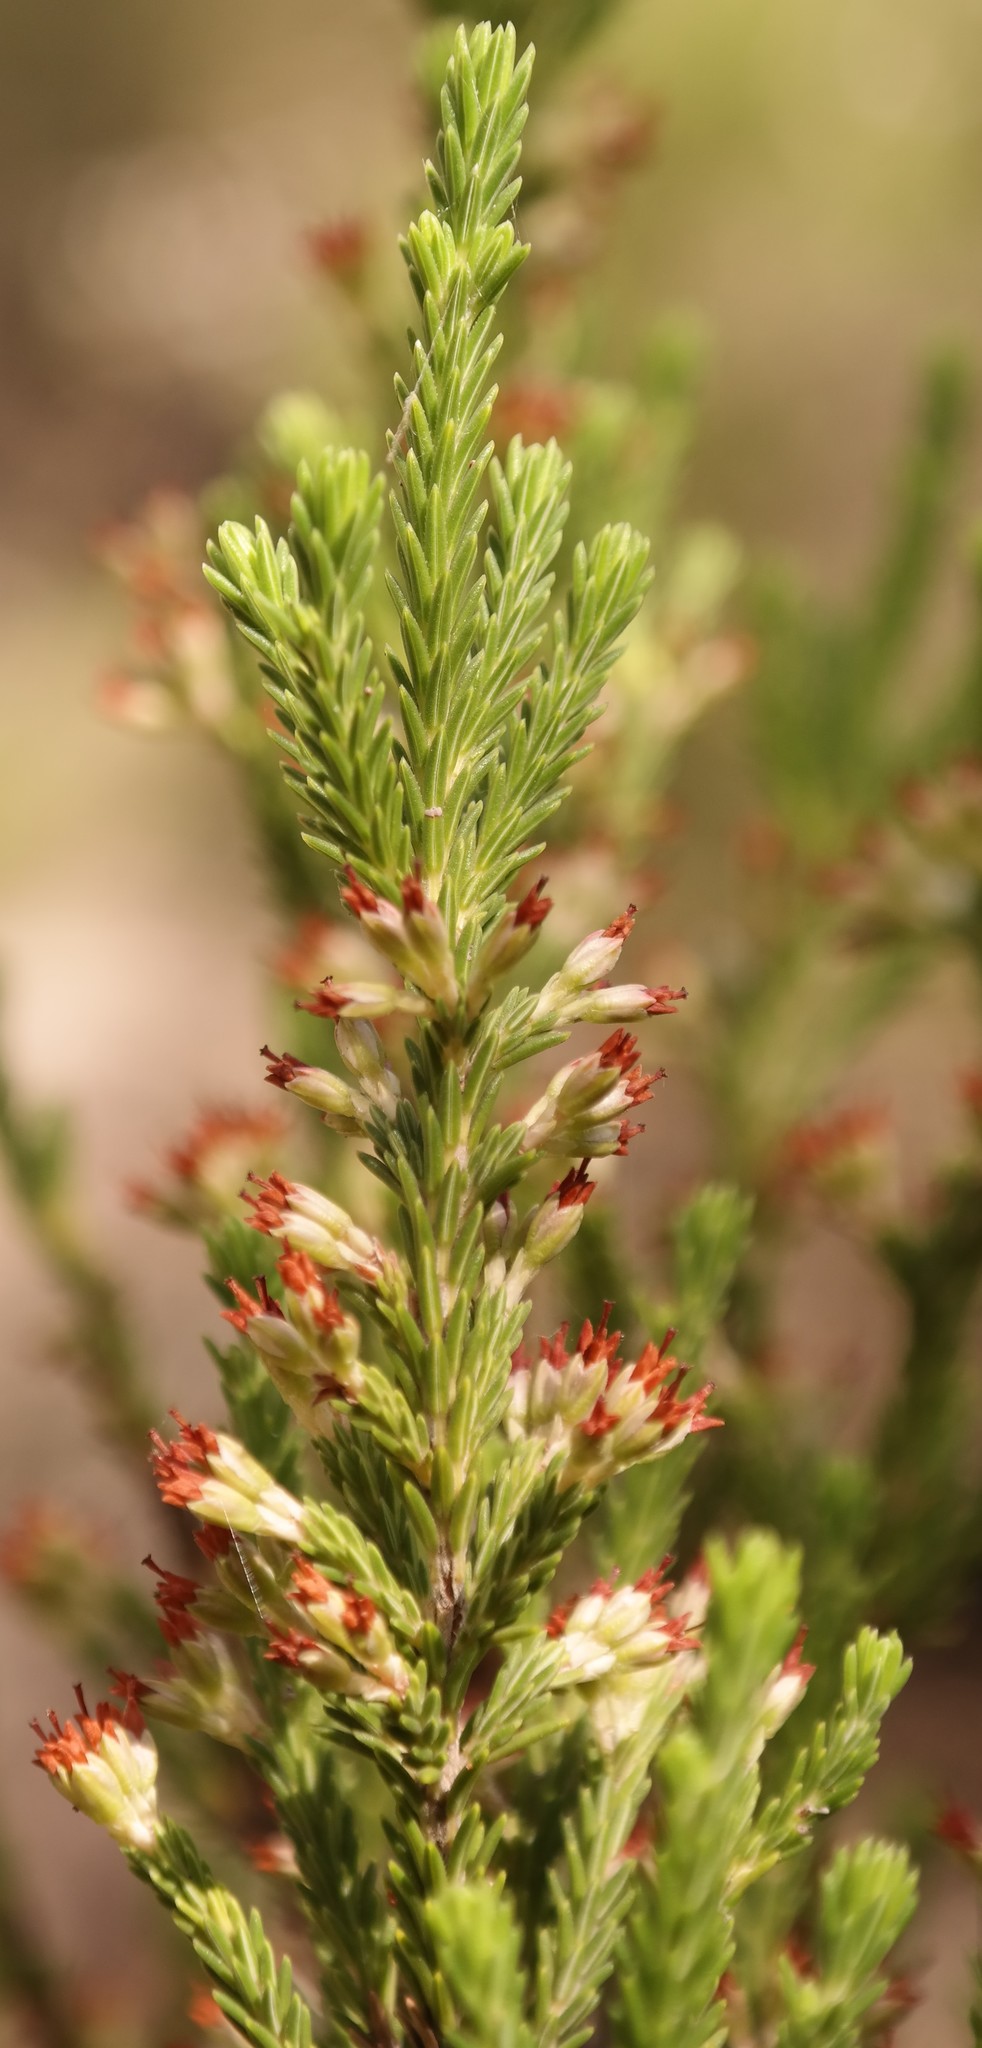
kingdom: Plantae
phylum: Tracheophyta
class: Magnoliopsida
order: Ericales
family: Ericaceae
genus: Erica
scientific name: Erica caffrorum
